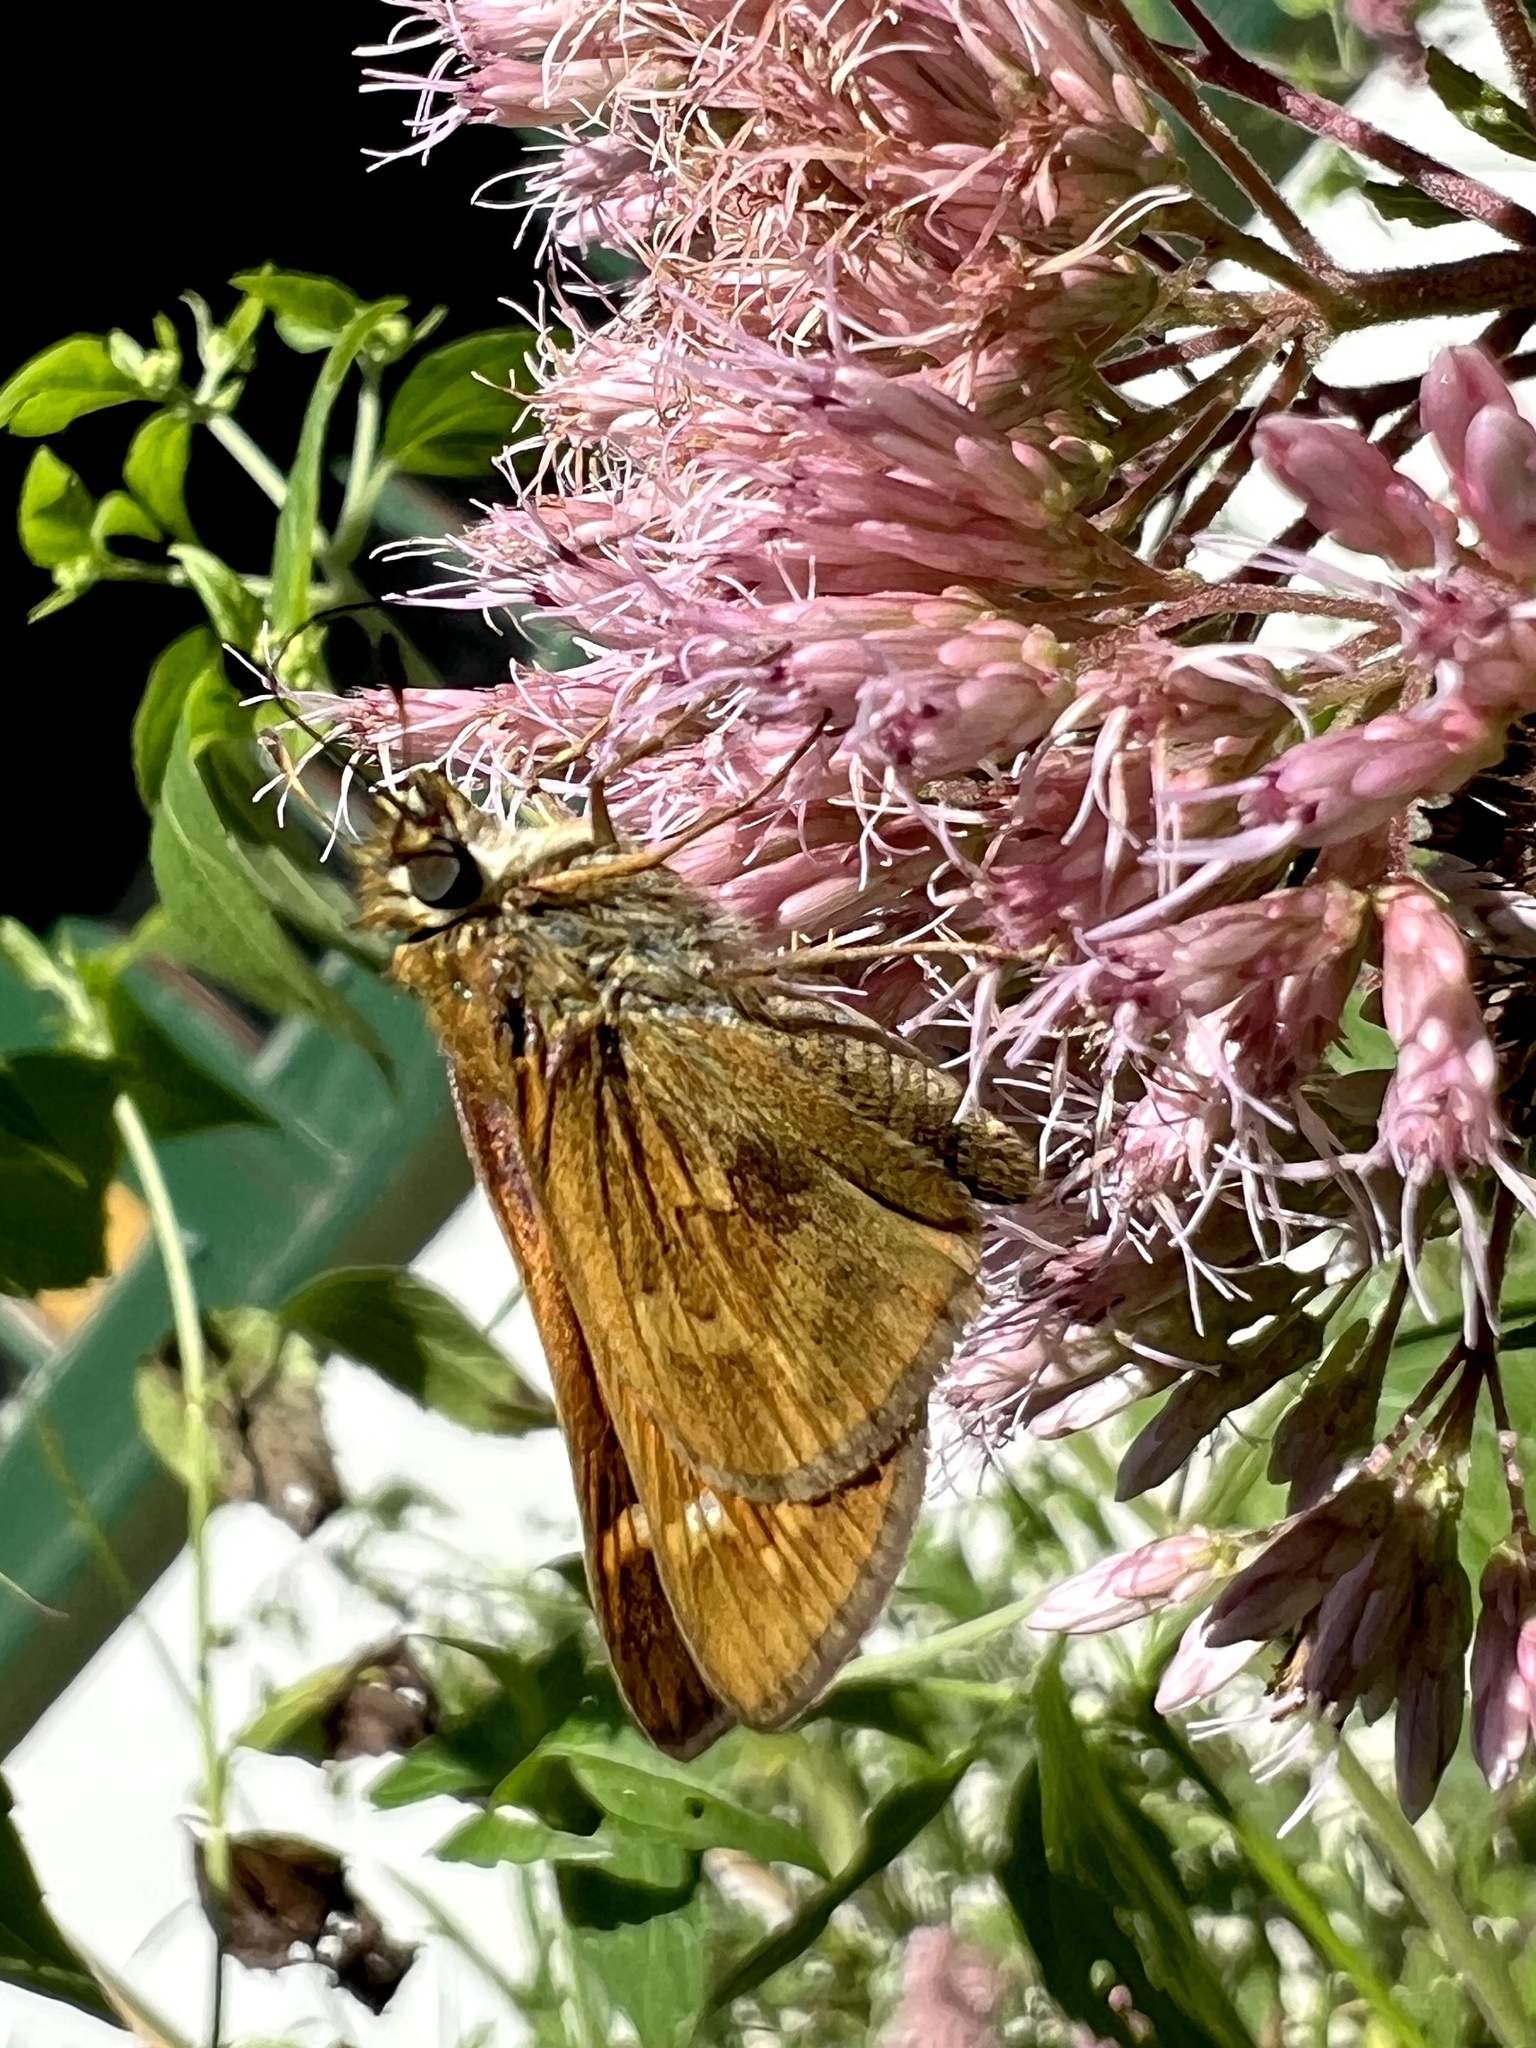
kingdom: Animalia
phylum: Arthropoda
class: Insecta
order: Lepidoptera
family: Hesperiidae
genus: Atalopedes
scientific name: Atalopedes
